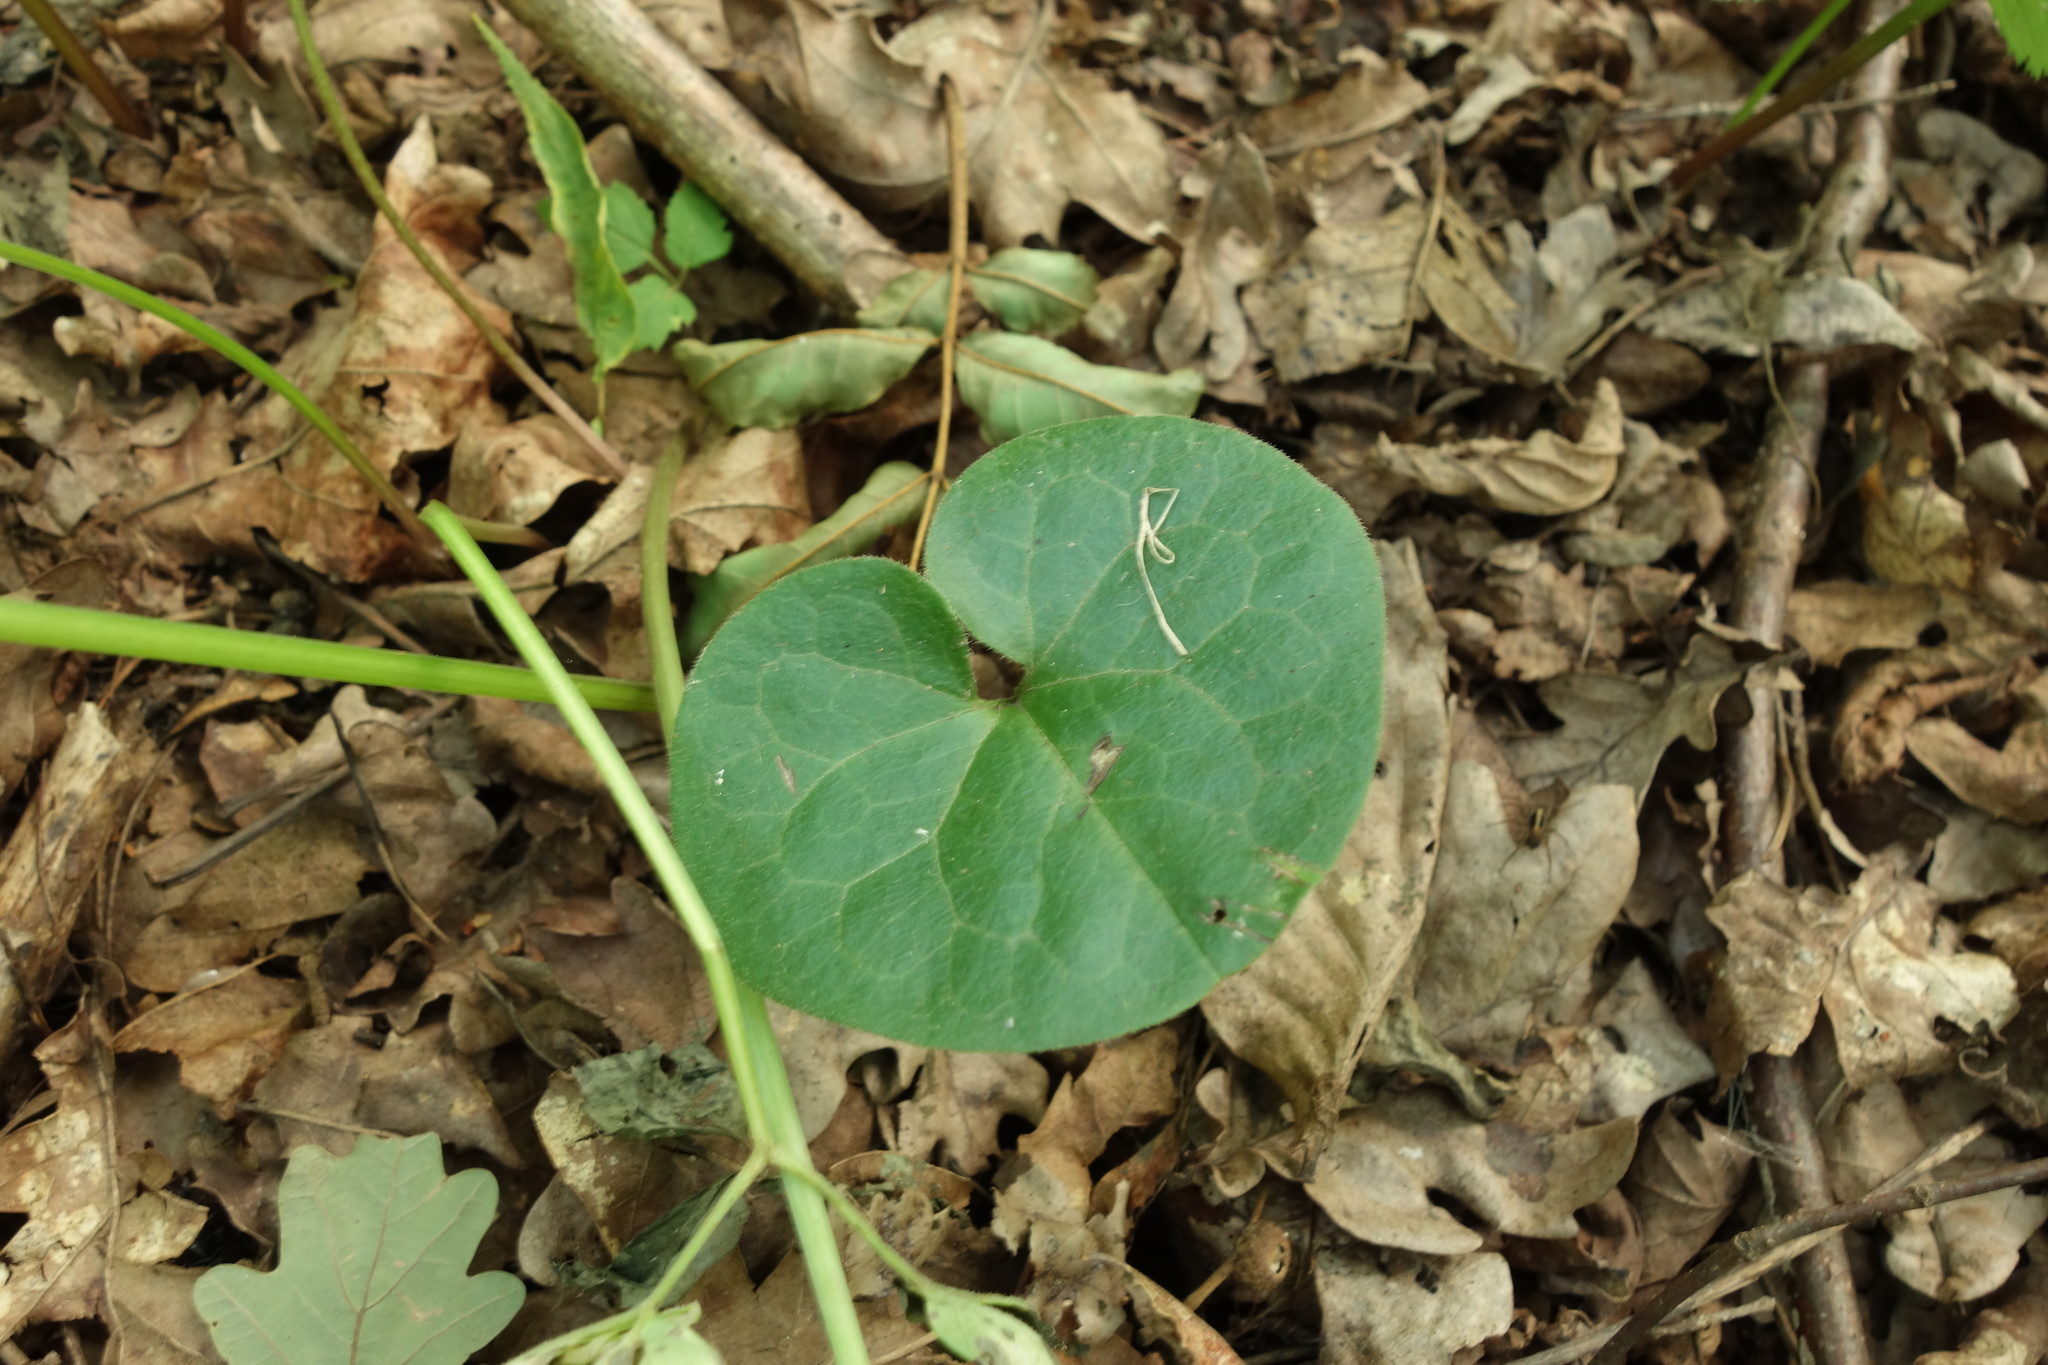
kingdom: Plantae
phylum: Tracheophyta
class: Magnoliopsida
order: Piperales
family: Aristolochiaceae
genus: Asarum
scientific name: Asarum europaeum
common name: Asarabacca
